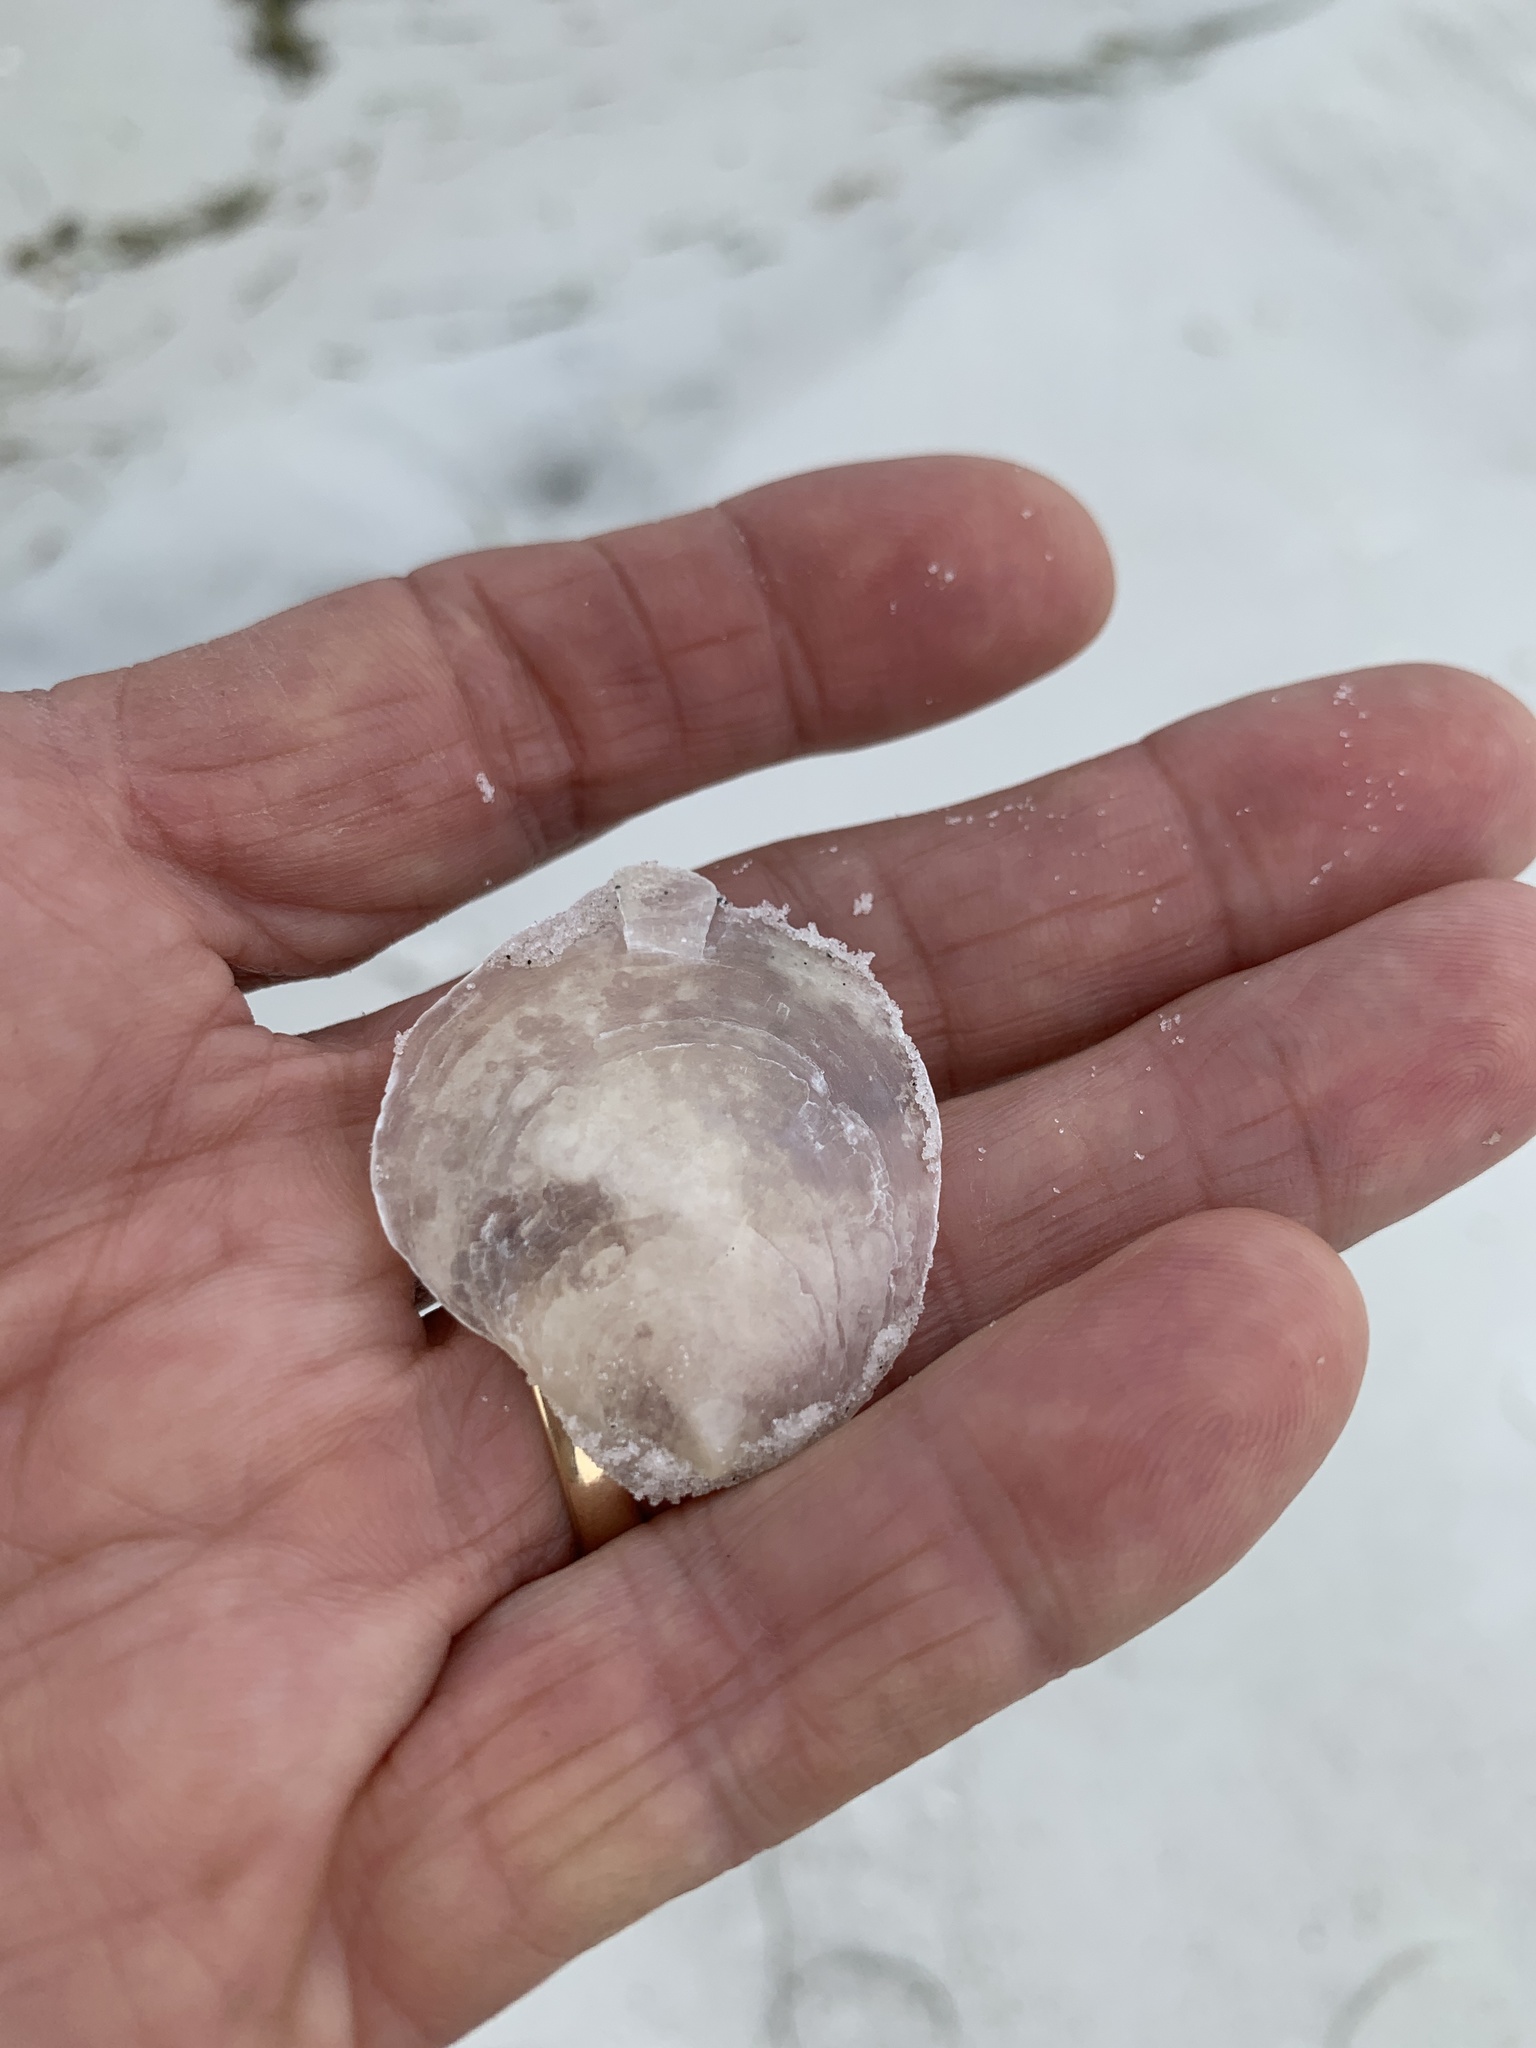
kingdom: Animalia
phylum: Mollusca
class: Bivalvia
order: Pectinida
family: Anomiidae
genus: Anomia
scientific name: Anomia simplex
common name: Common jingle shell
